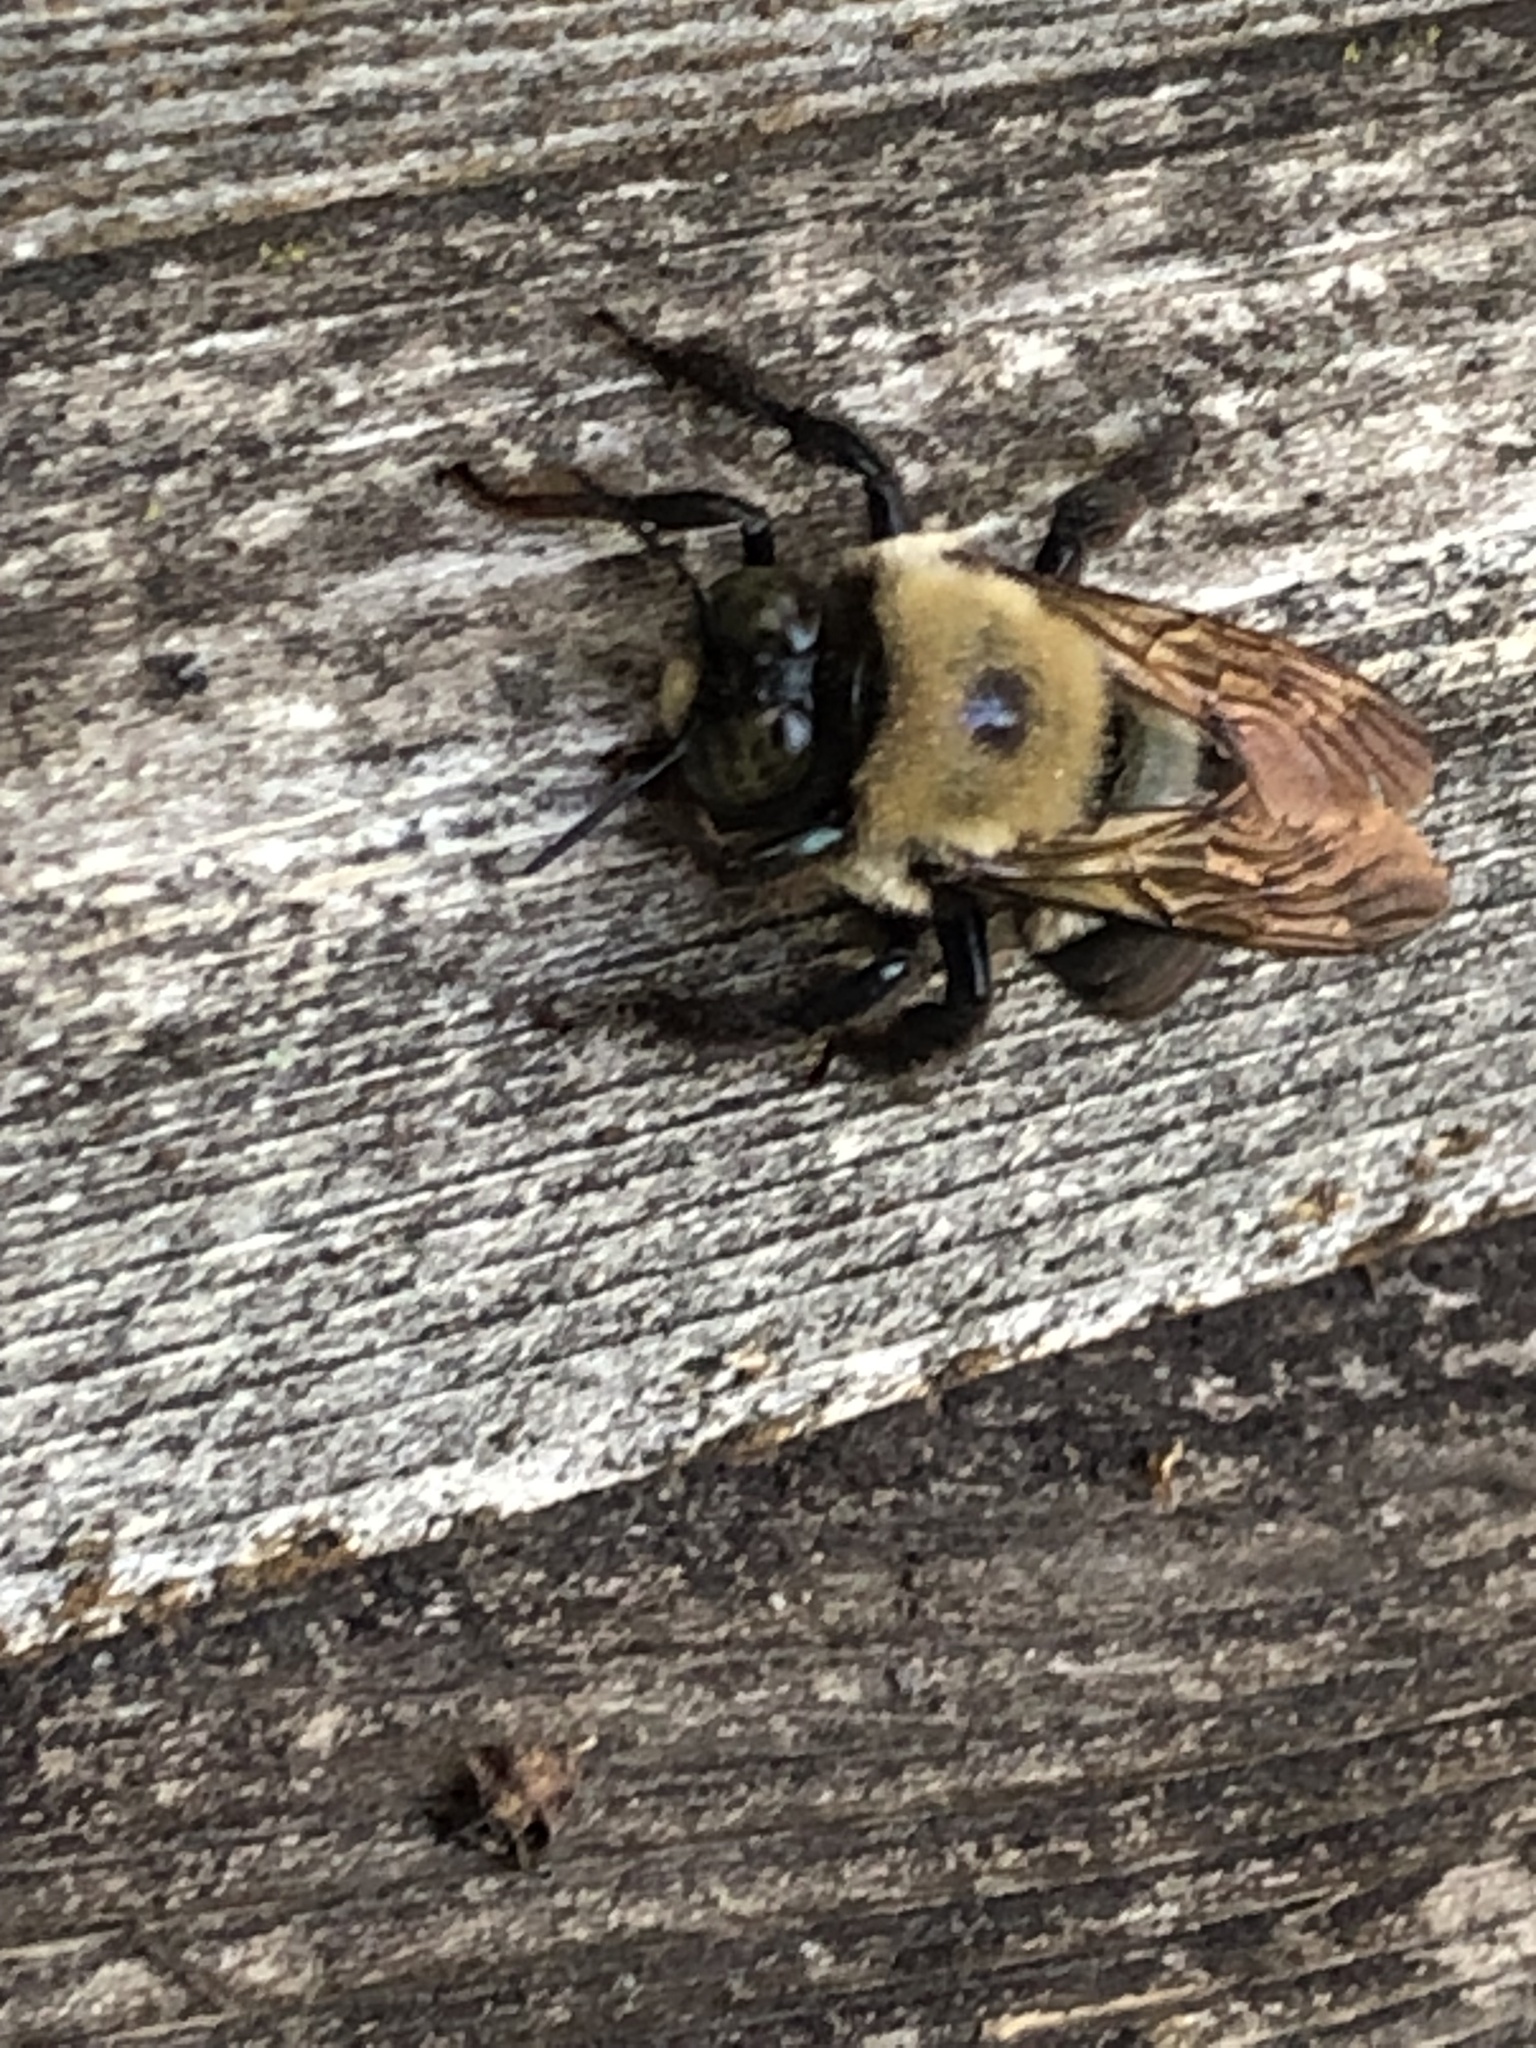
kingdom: Animalia
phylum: Arthropoda
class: Insecta
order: Hymenoptera
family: Apidae
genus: Xylocopa
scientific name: Xylocopa virginica
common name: Carpenter bee
